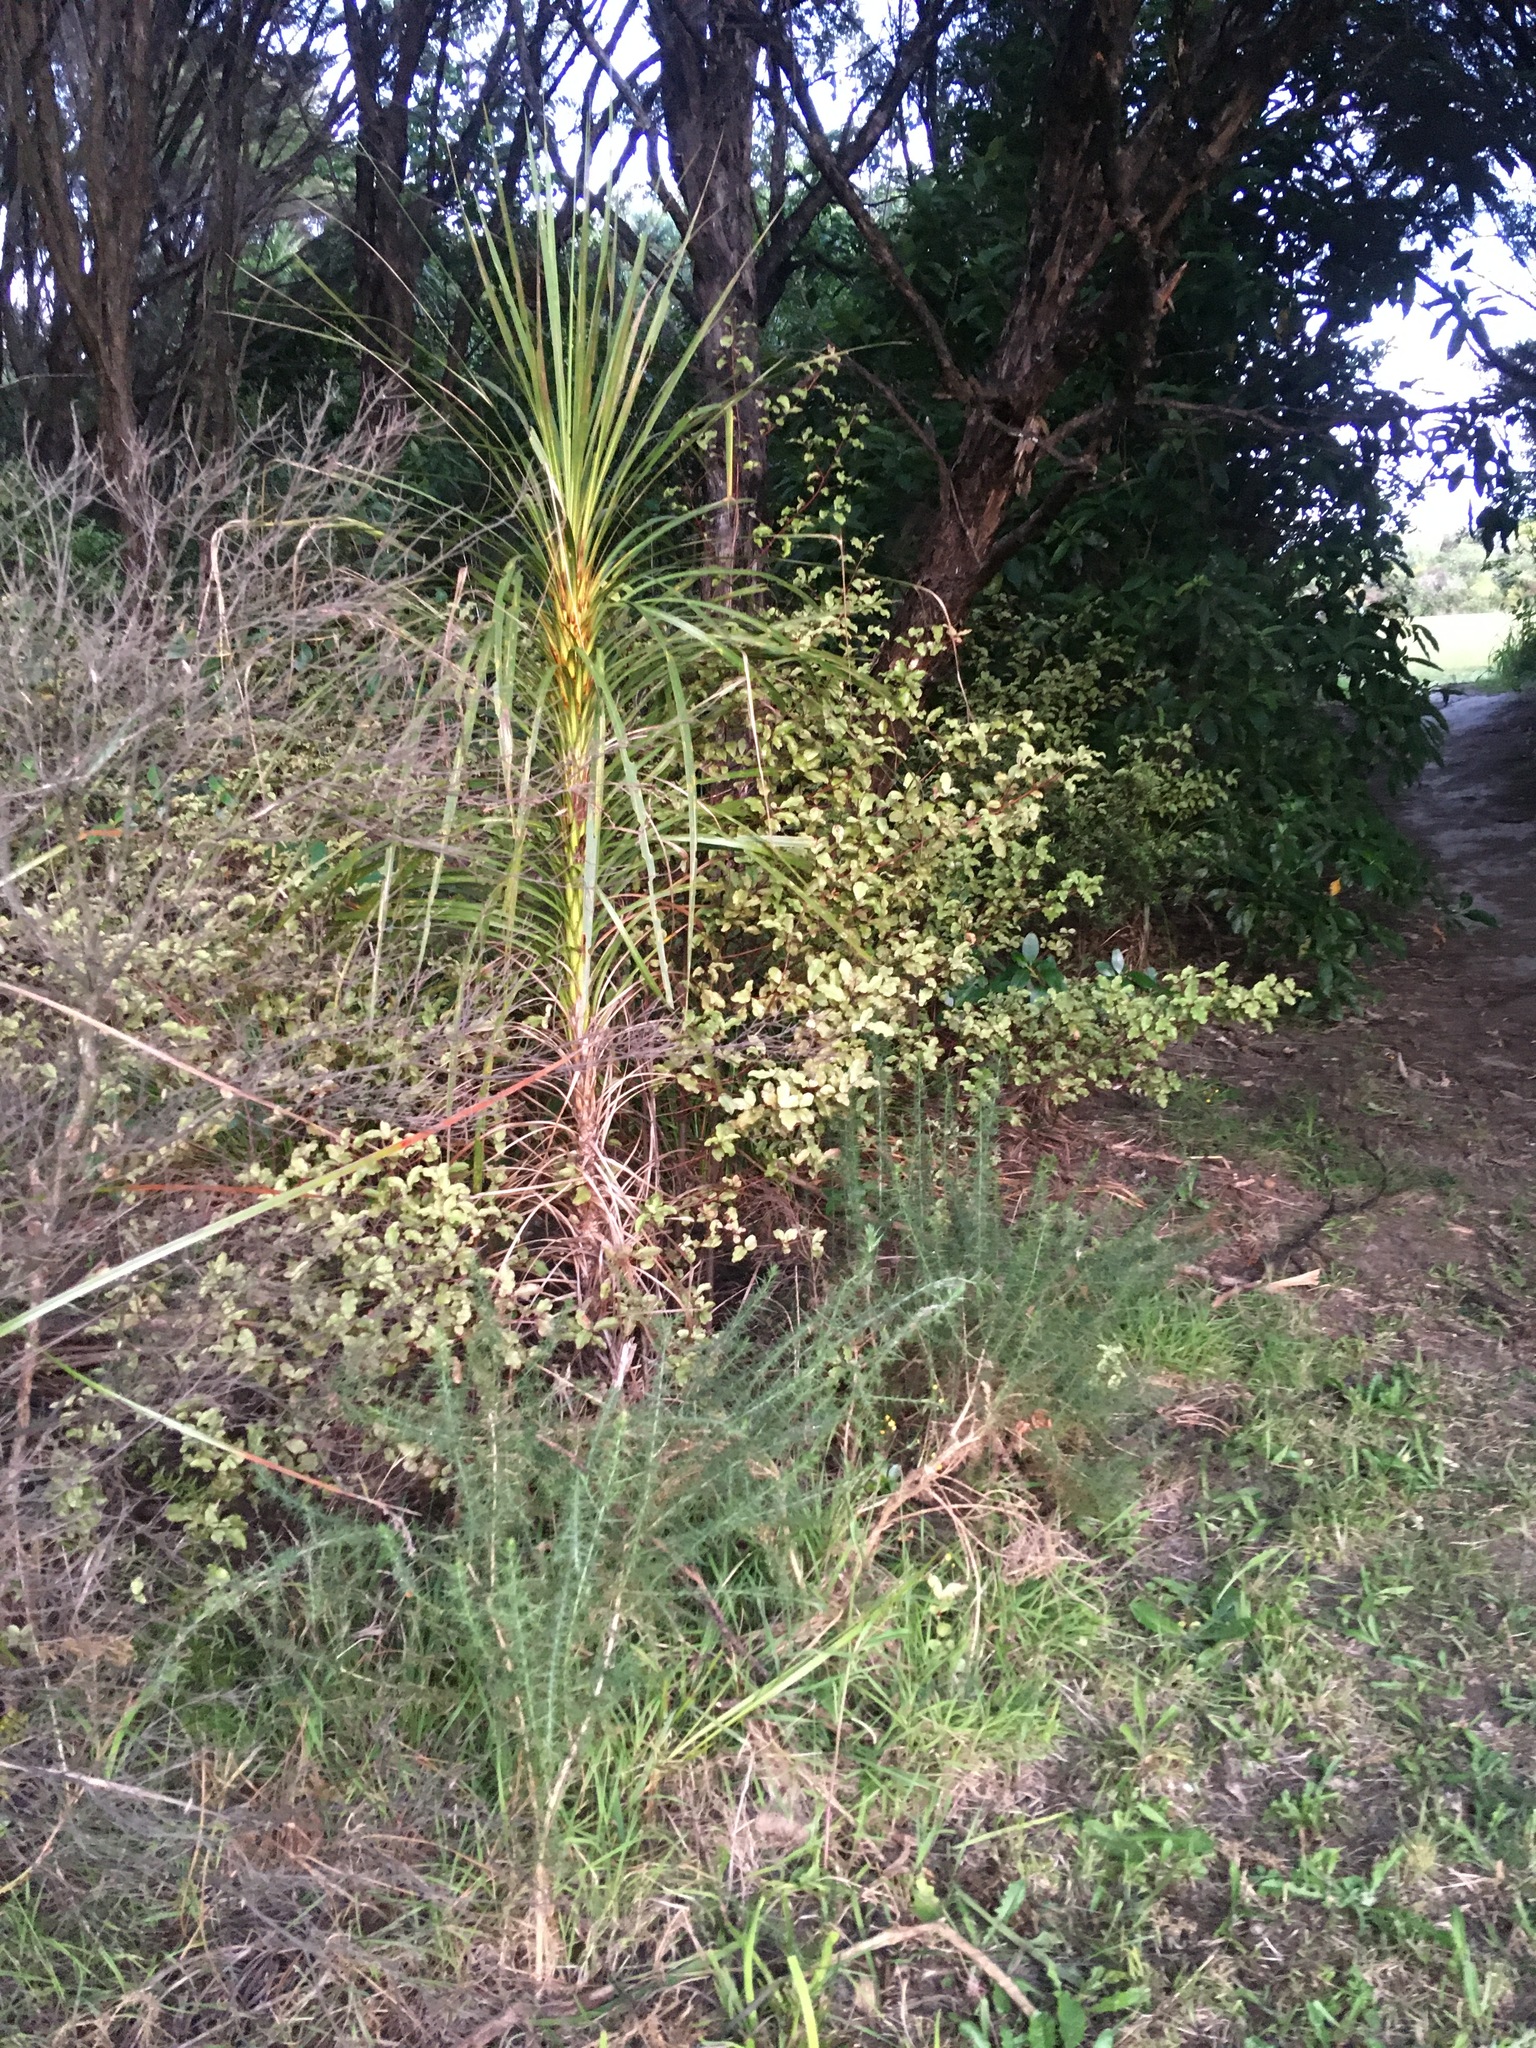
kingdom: Plantae
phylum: Tracheophyta
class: Liliopsida
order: Asparagales
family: Asparagaceae
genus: Cordyline
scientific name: Cordyline australis
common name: Cabbage-palm
